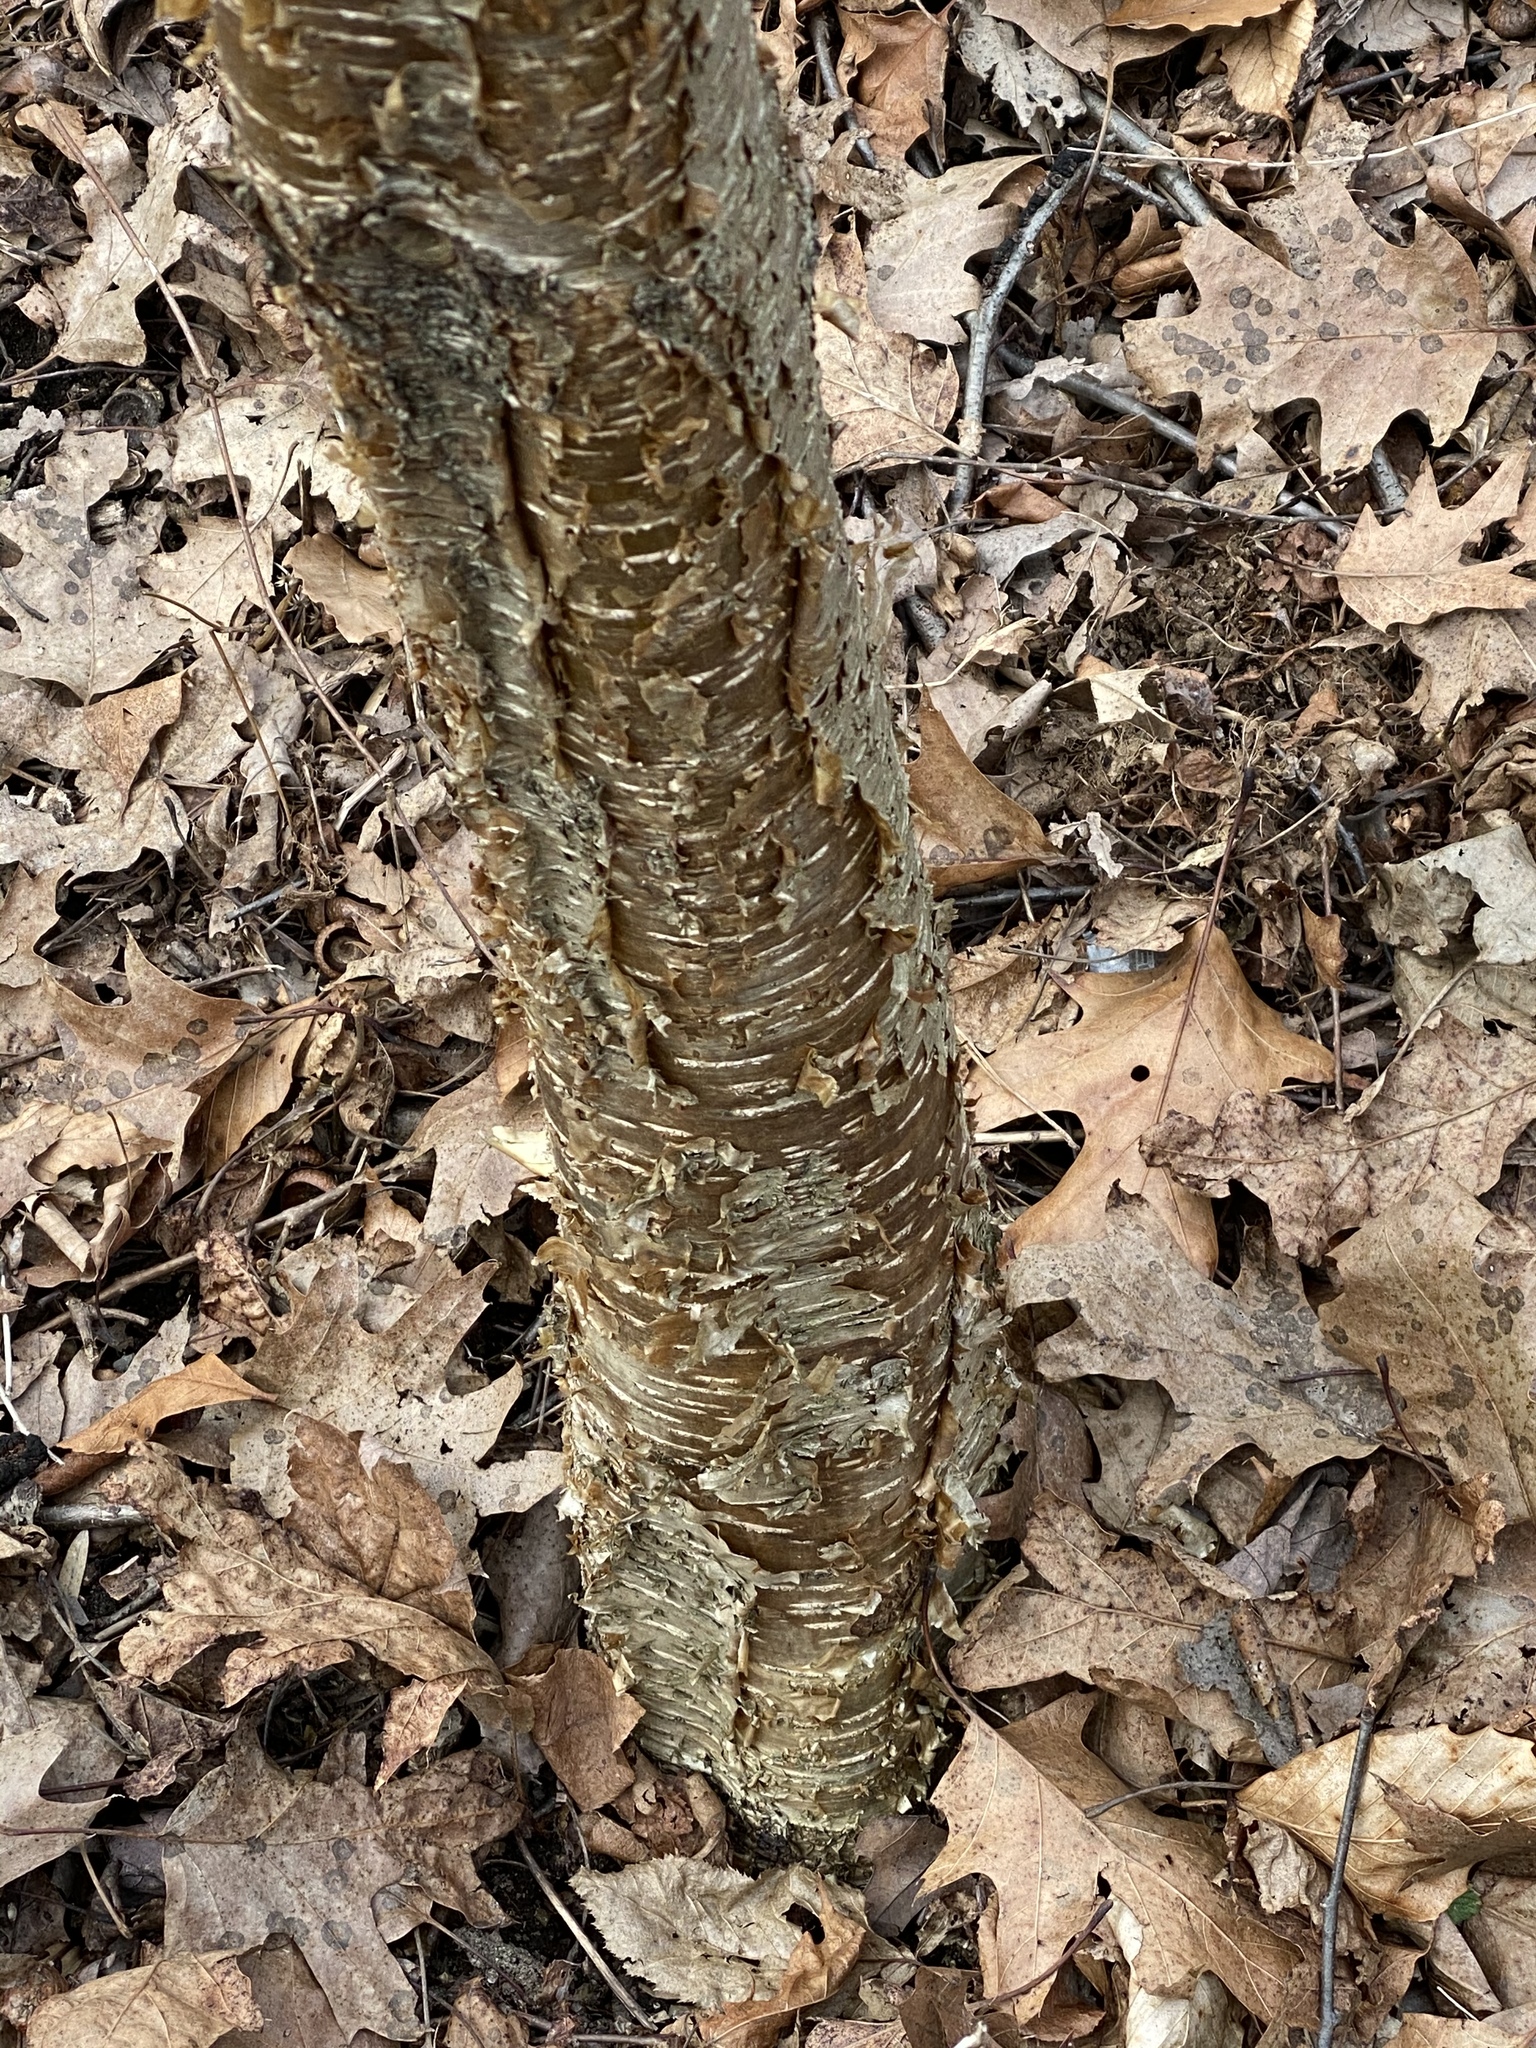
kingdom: Plantae
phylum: Tracheophyta
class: Magnoliopsida
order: Fagales
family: Betulaceae
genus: Betula
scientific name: Betula alleghaniensis
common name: Yellow birch
